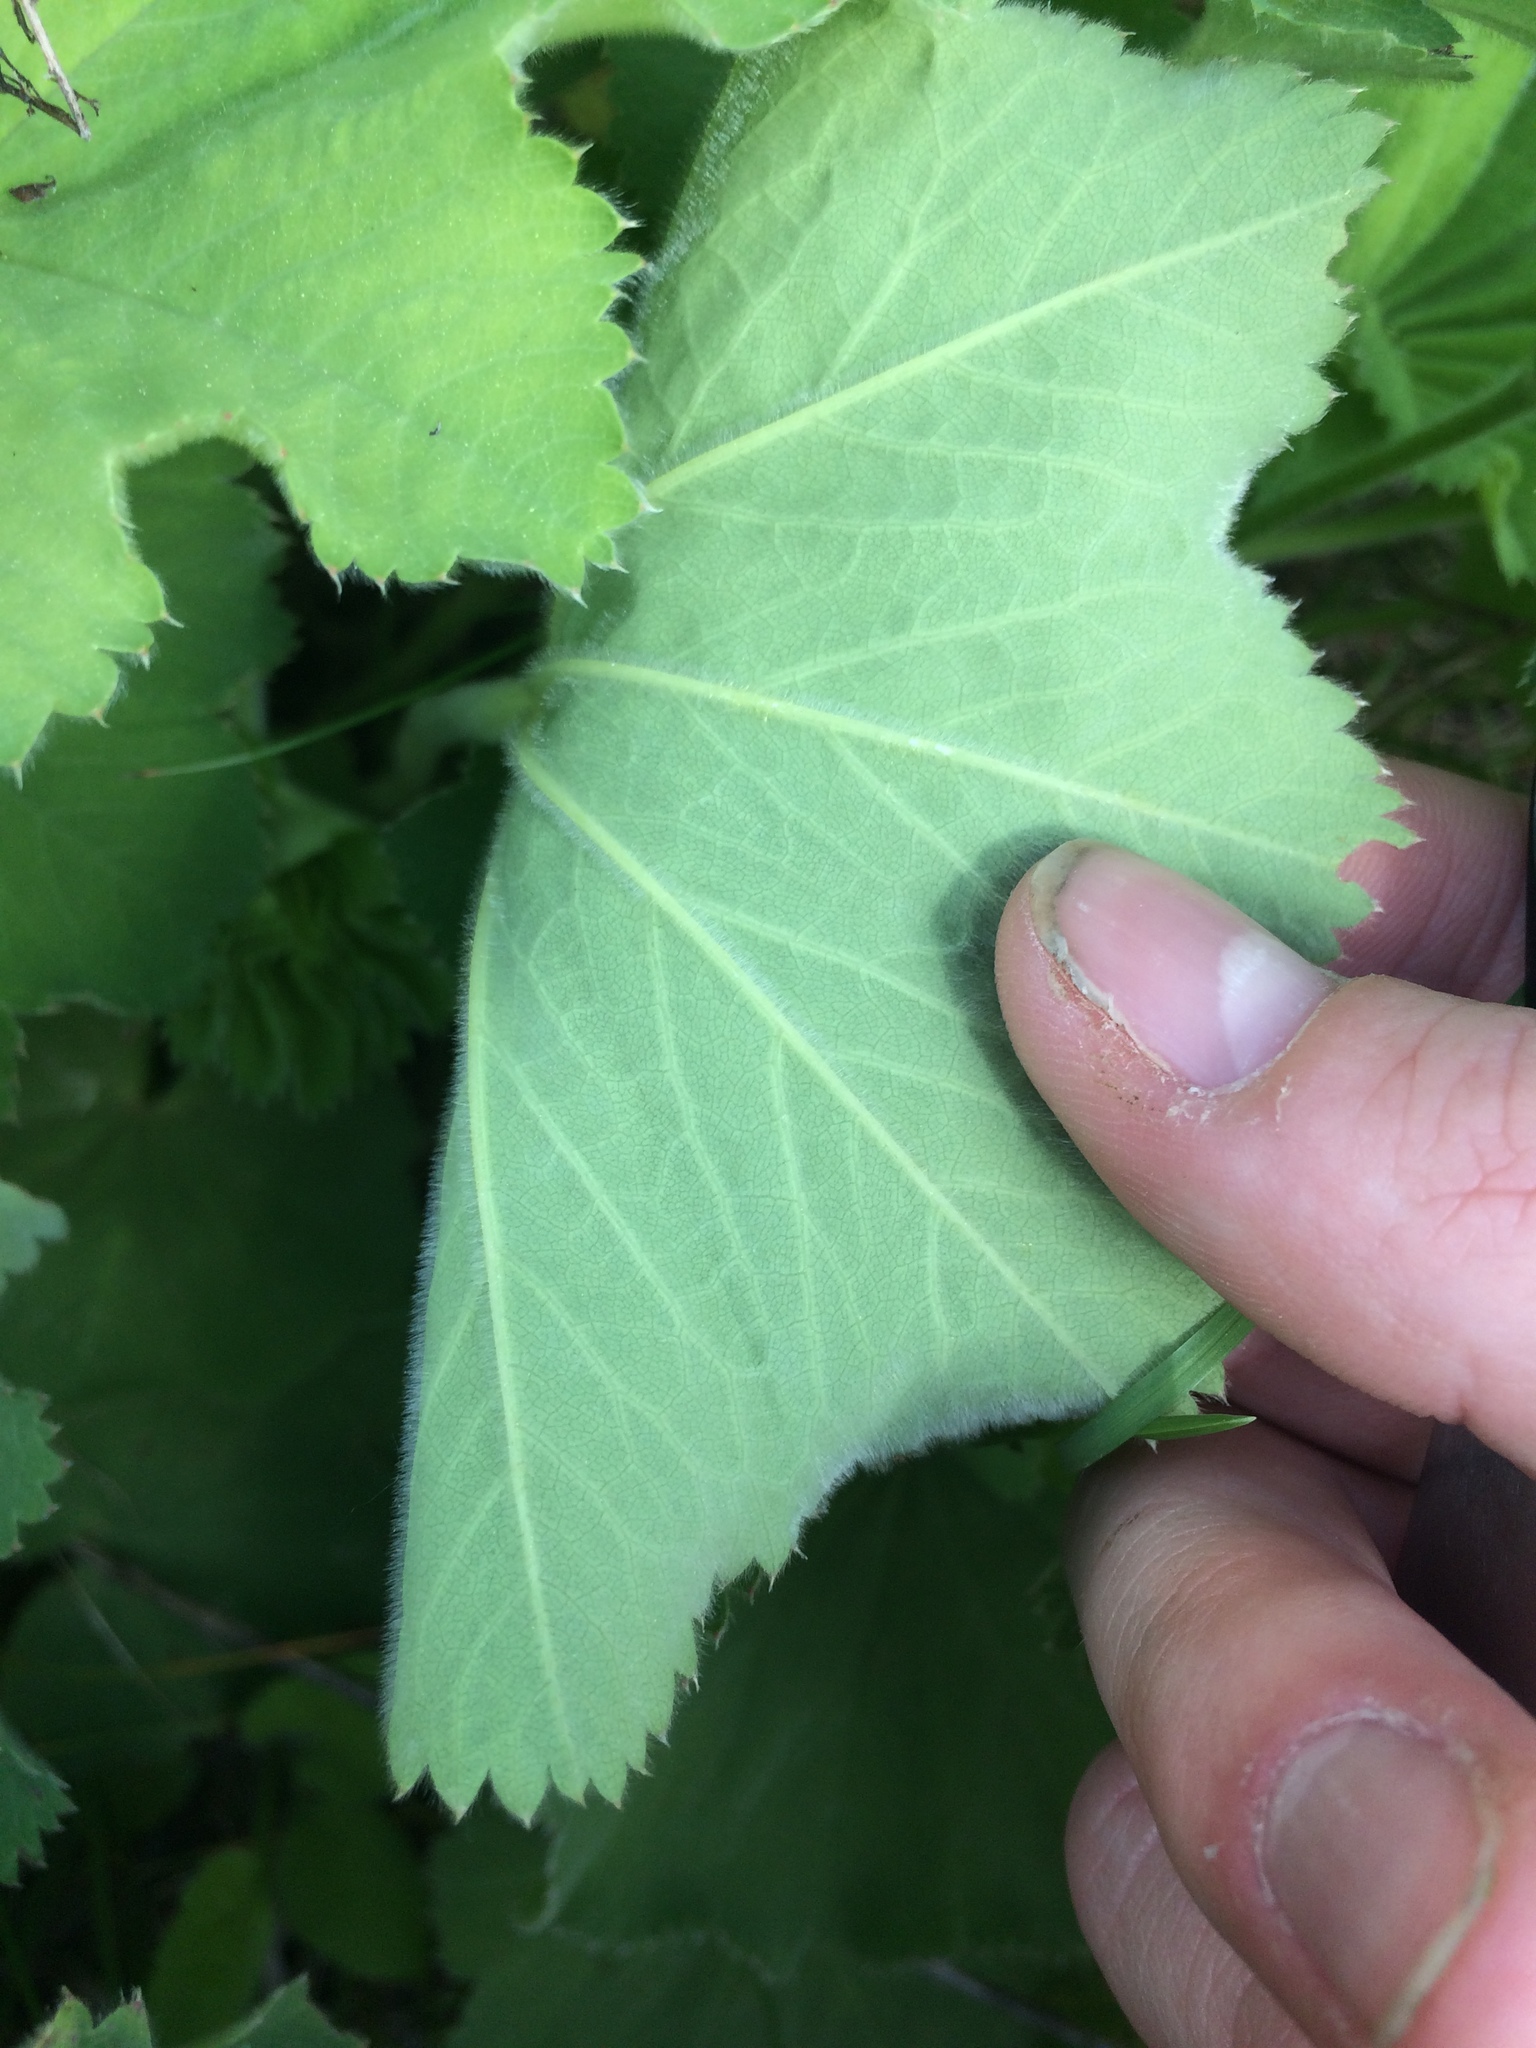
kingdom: Plantae
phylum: Tracheophyta
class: Magnoliopsida
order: Rosales
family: Rosaceae
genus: Alchemilla
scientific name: Alchemilla mollis
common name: Lady's-mantle
